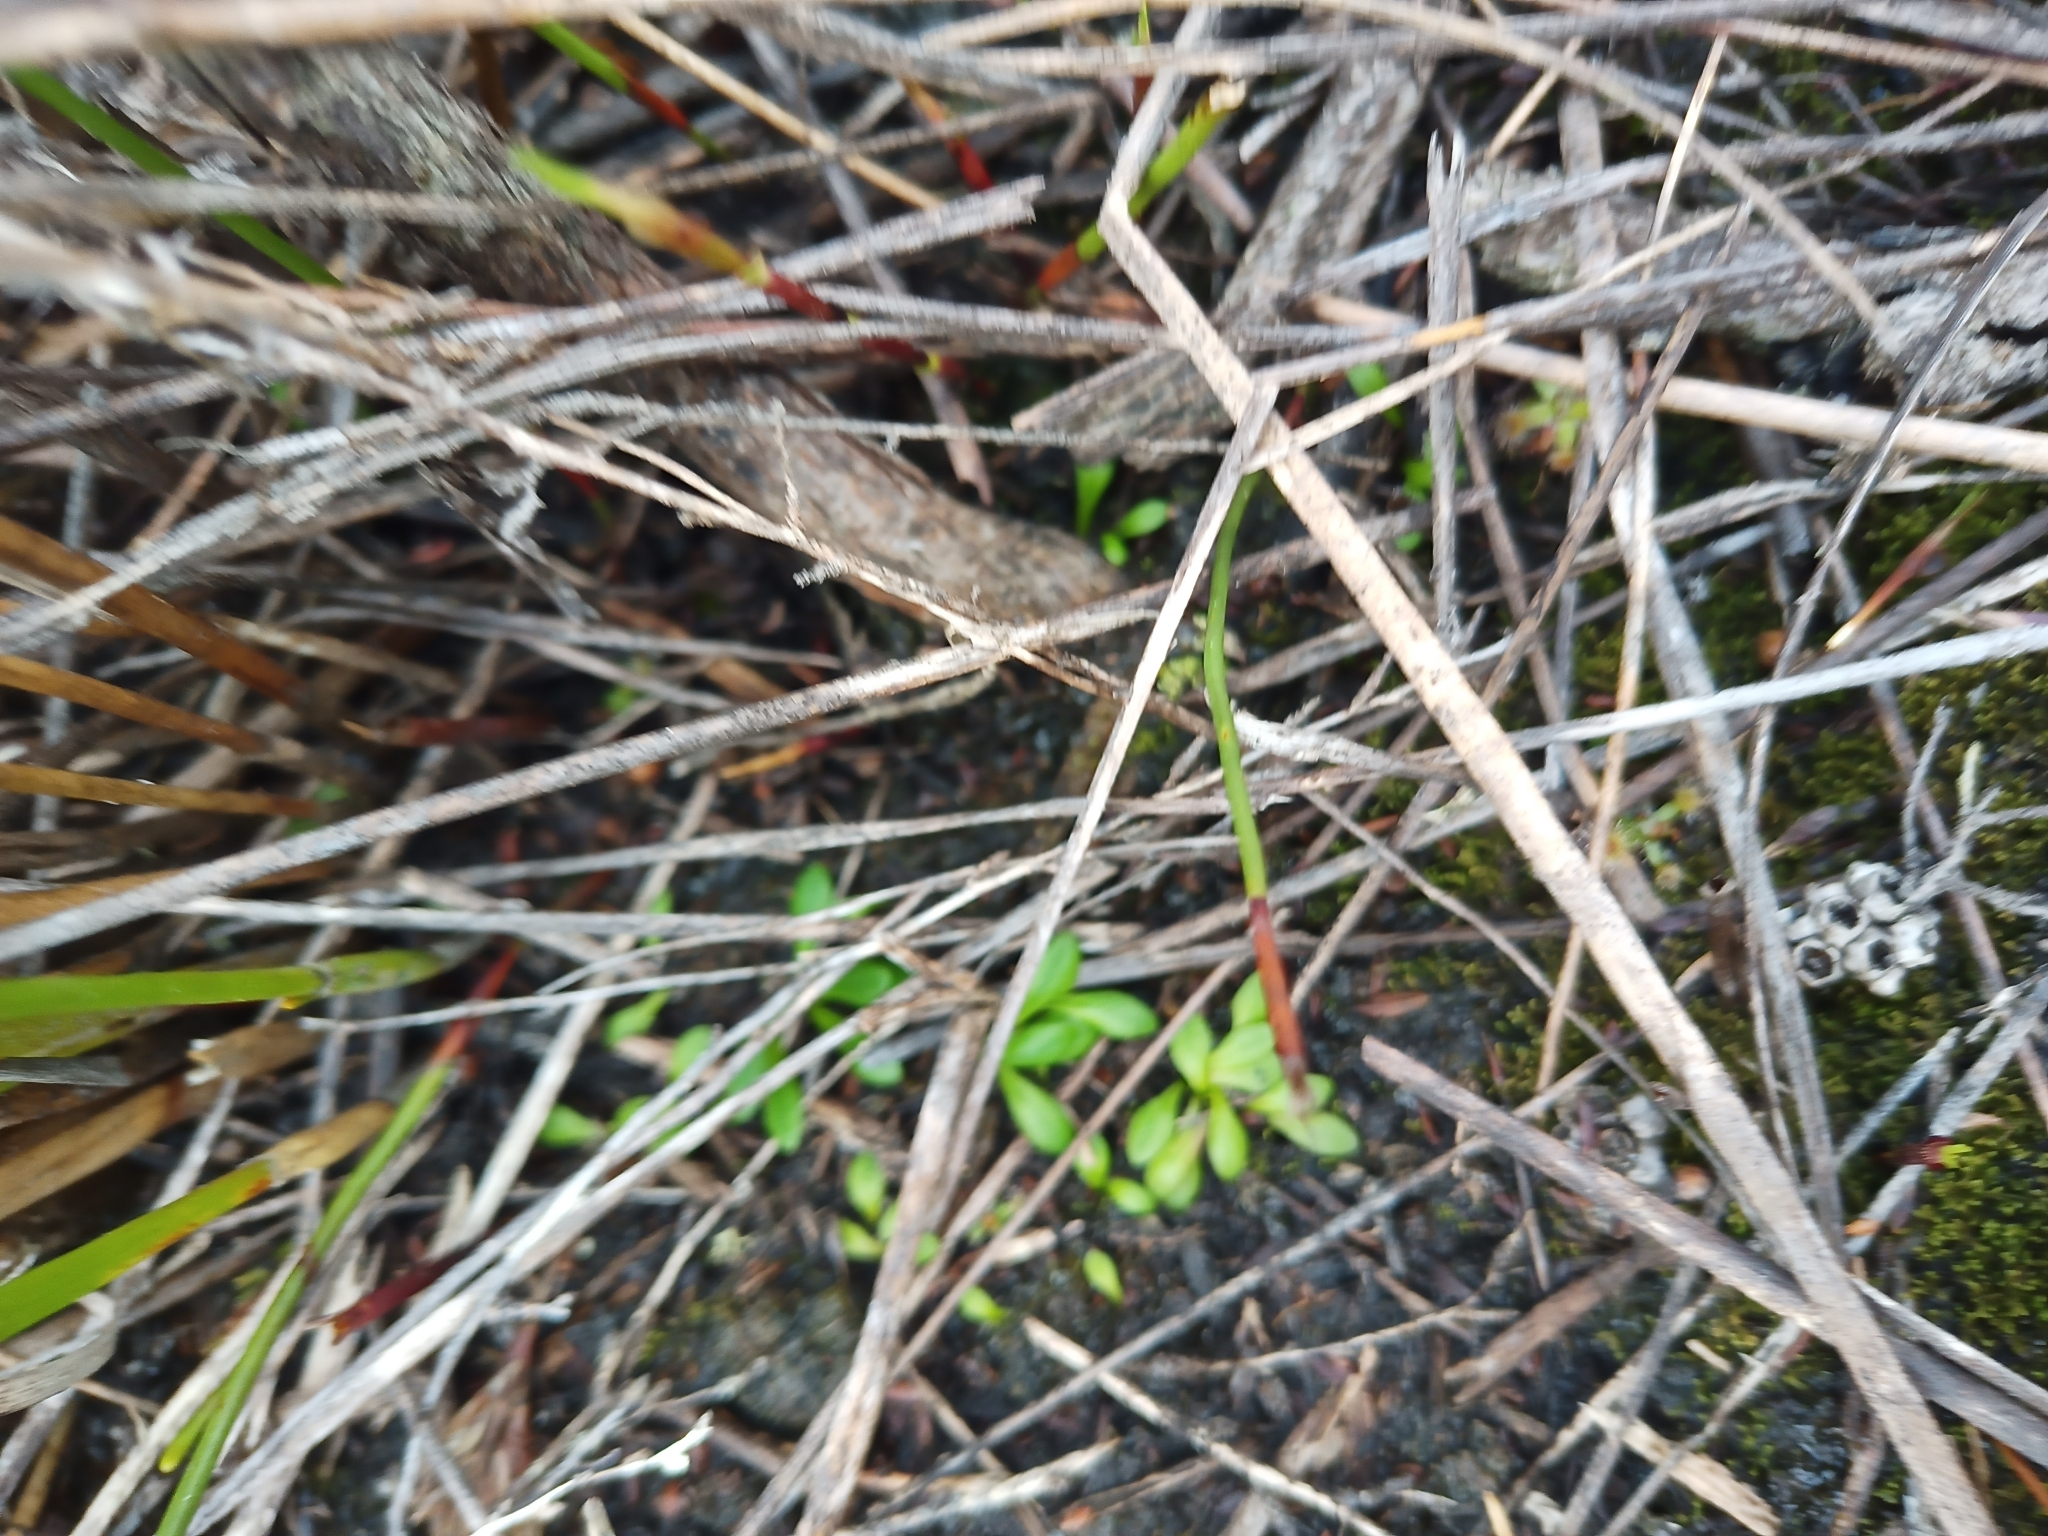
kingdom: Plantae
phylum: Tracheophyta
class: Magnoliopsida
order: Lamiales
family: Lentibulariaceae
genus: Utricularia
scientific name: Utricularia menziesii
